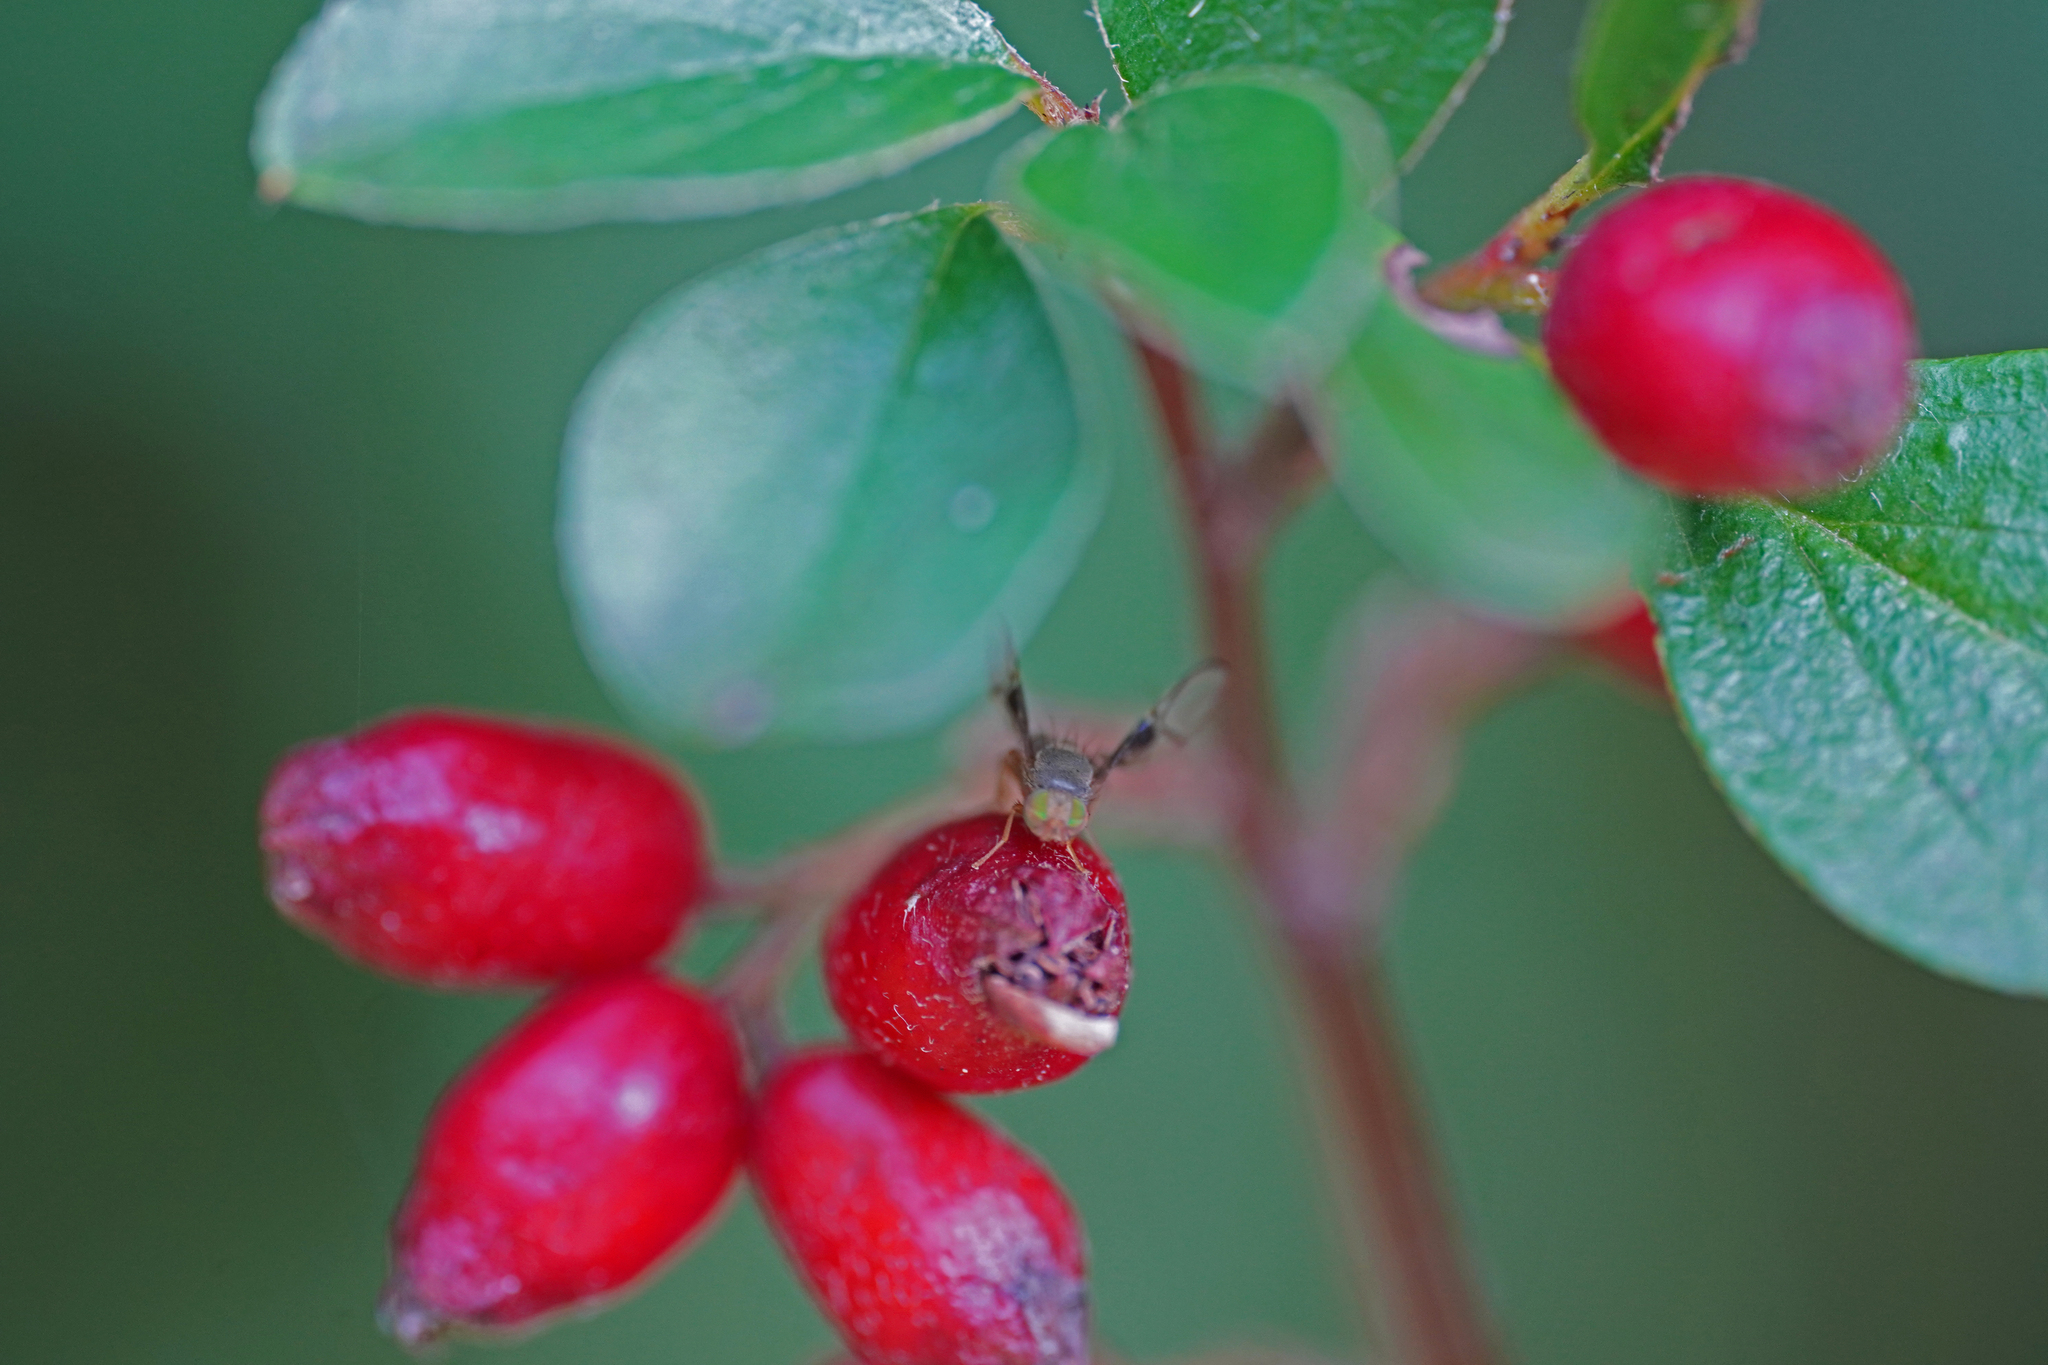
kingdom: Animalia
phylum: Arthropoda
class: Insecta
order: Diptera
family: Tephritidae
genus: Anomoia
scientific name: Anomoia purmunda
